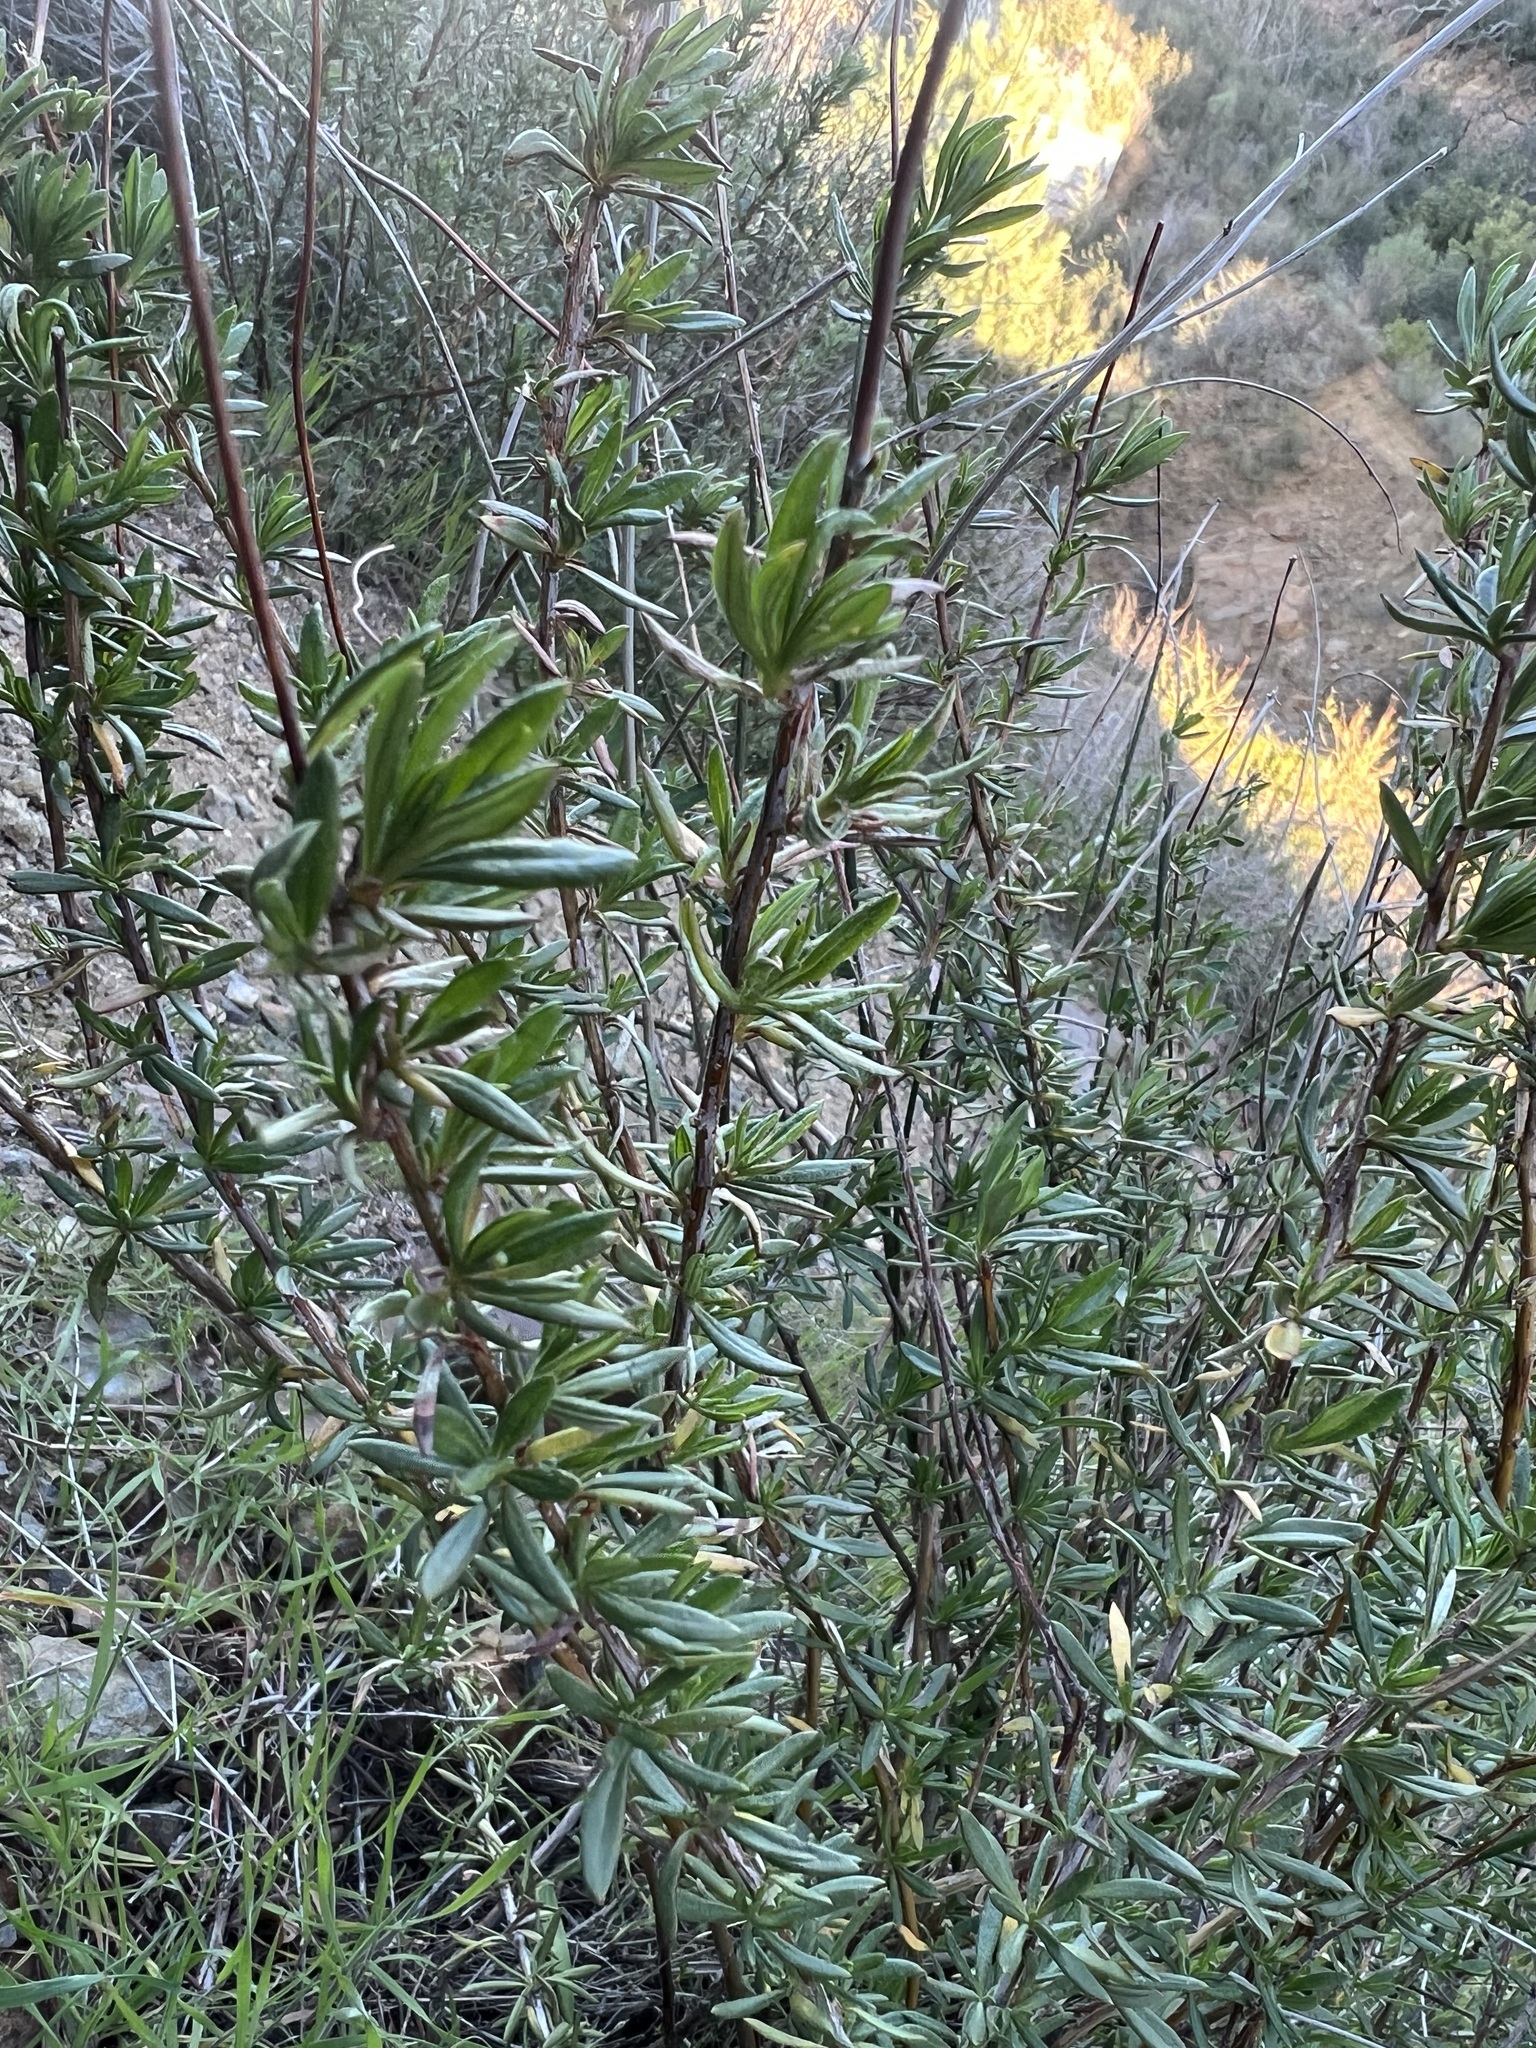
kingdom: Plantae
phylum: Tracheophyta
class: Magnoliopsida
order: Caryophyllales
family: Polygonaceae
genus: Eriogonum
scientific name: Eriogonum fasciculatum
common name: California wild buckwheat
